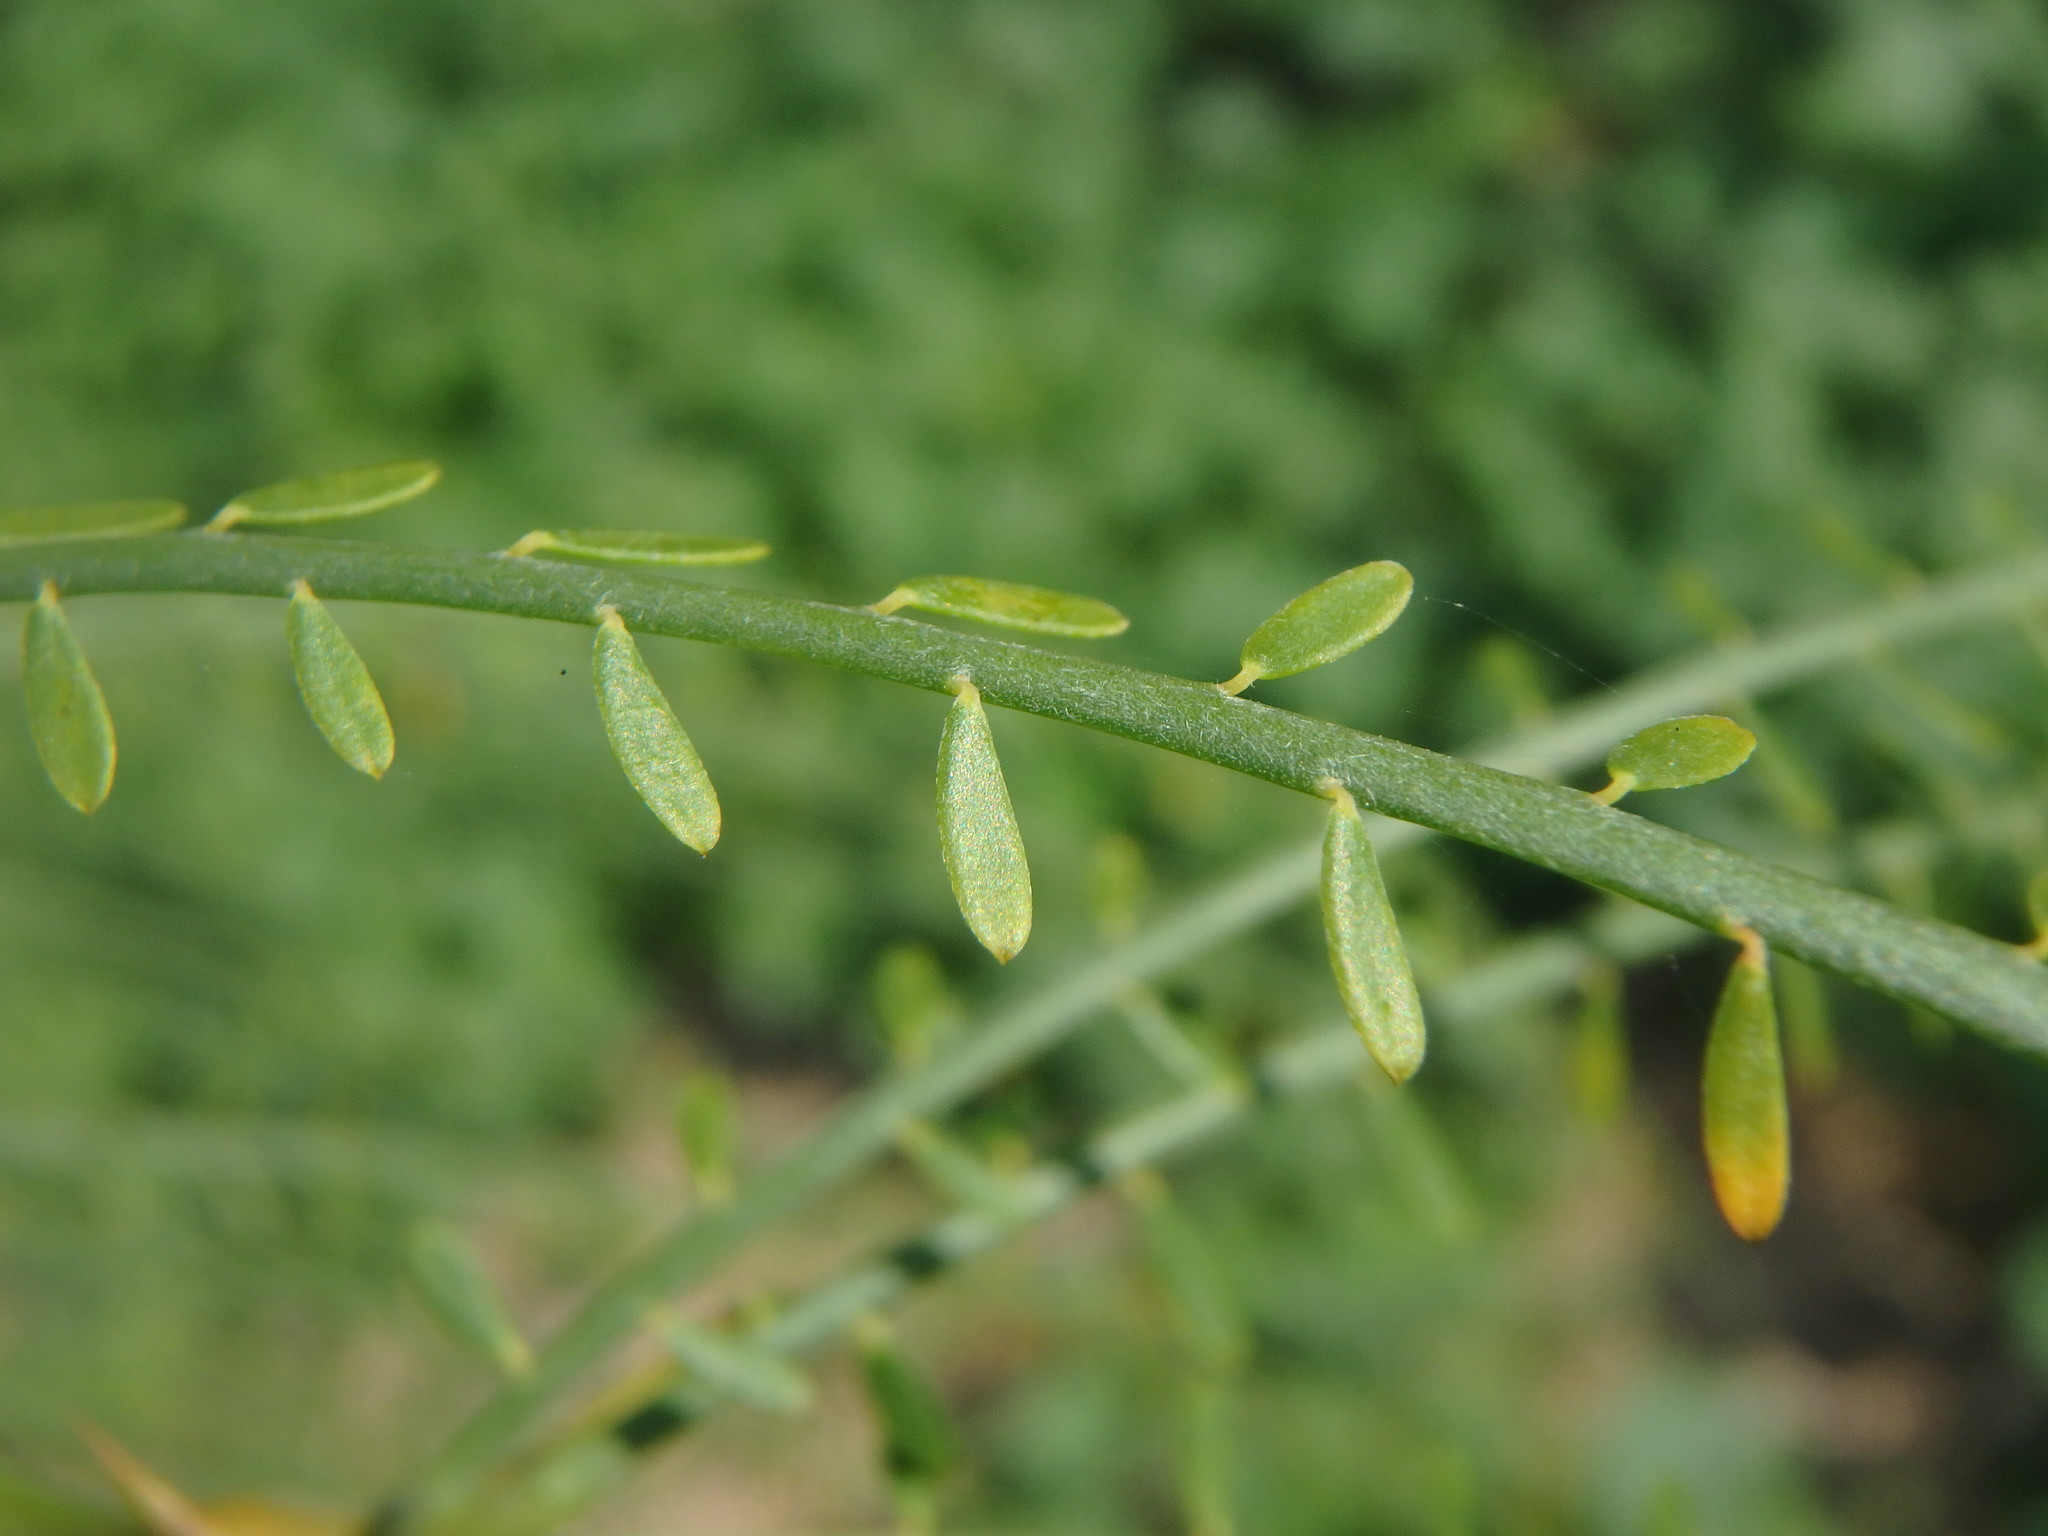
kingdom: Plantae
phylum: Tracheophyta
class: Magnoliopsida
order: Fabales
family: Fabaceae
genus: Parkinsonia
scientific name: Parkinsonia aculeata
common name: Jerusalem thorn
